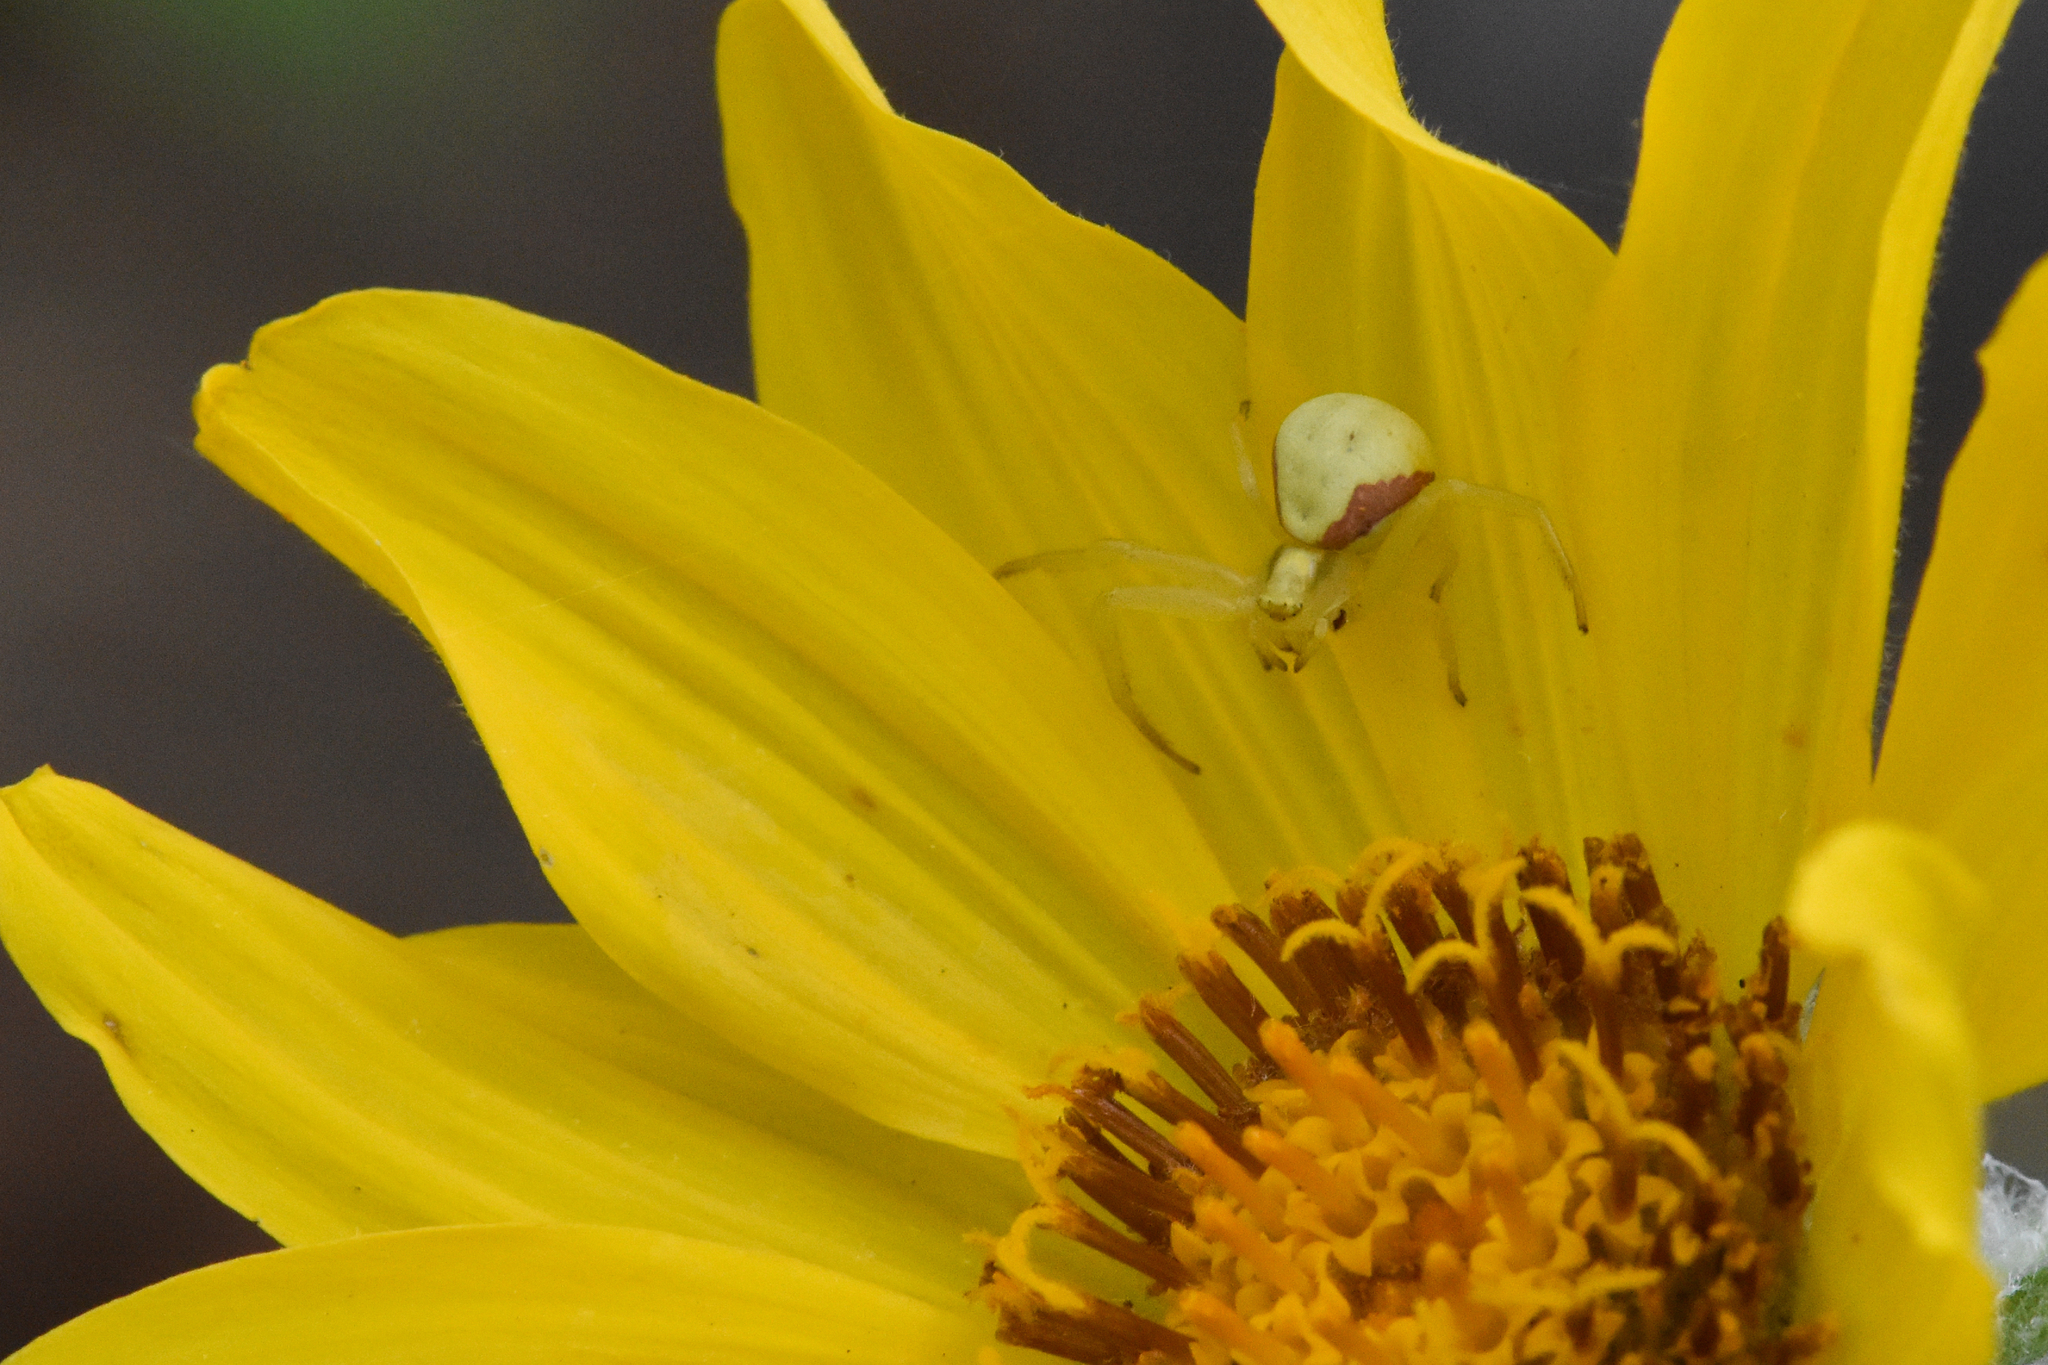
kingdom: Animalia
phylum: Arthropoda
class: Arachnida
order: Araneae
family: Thomisidae
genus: Misumena
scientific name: Misumena vatia
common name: Goldenrod crab spider
